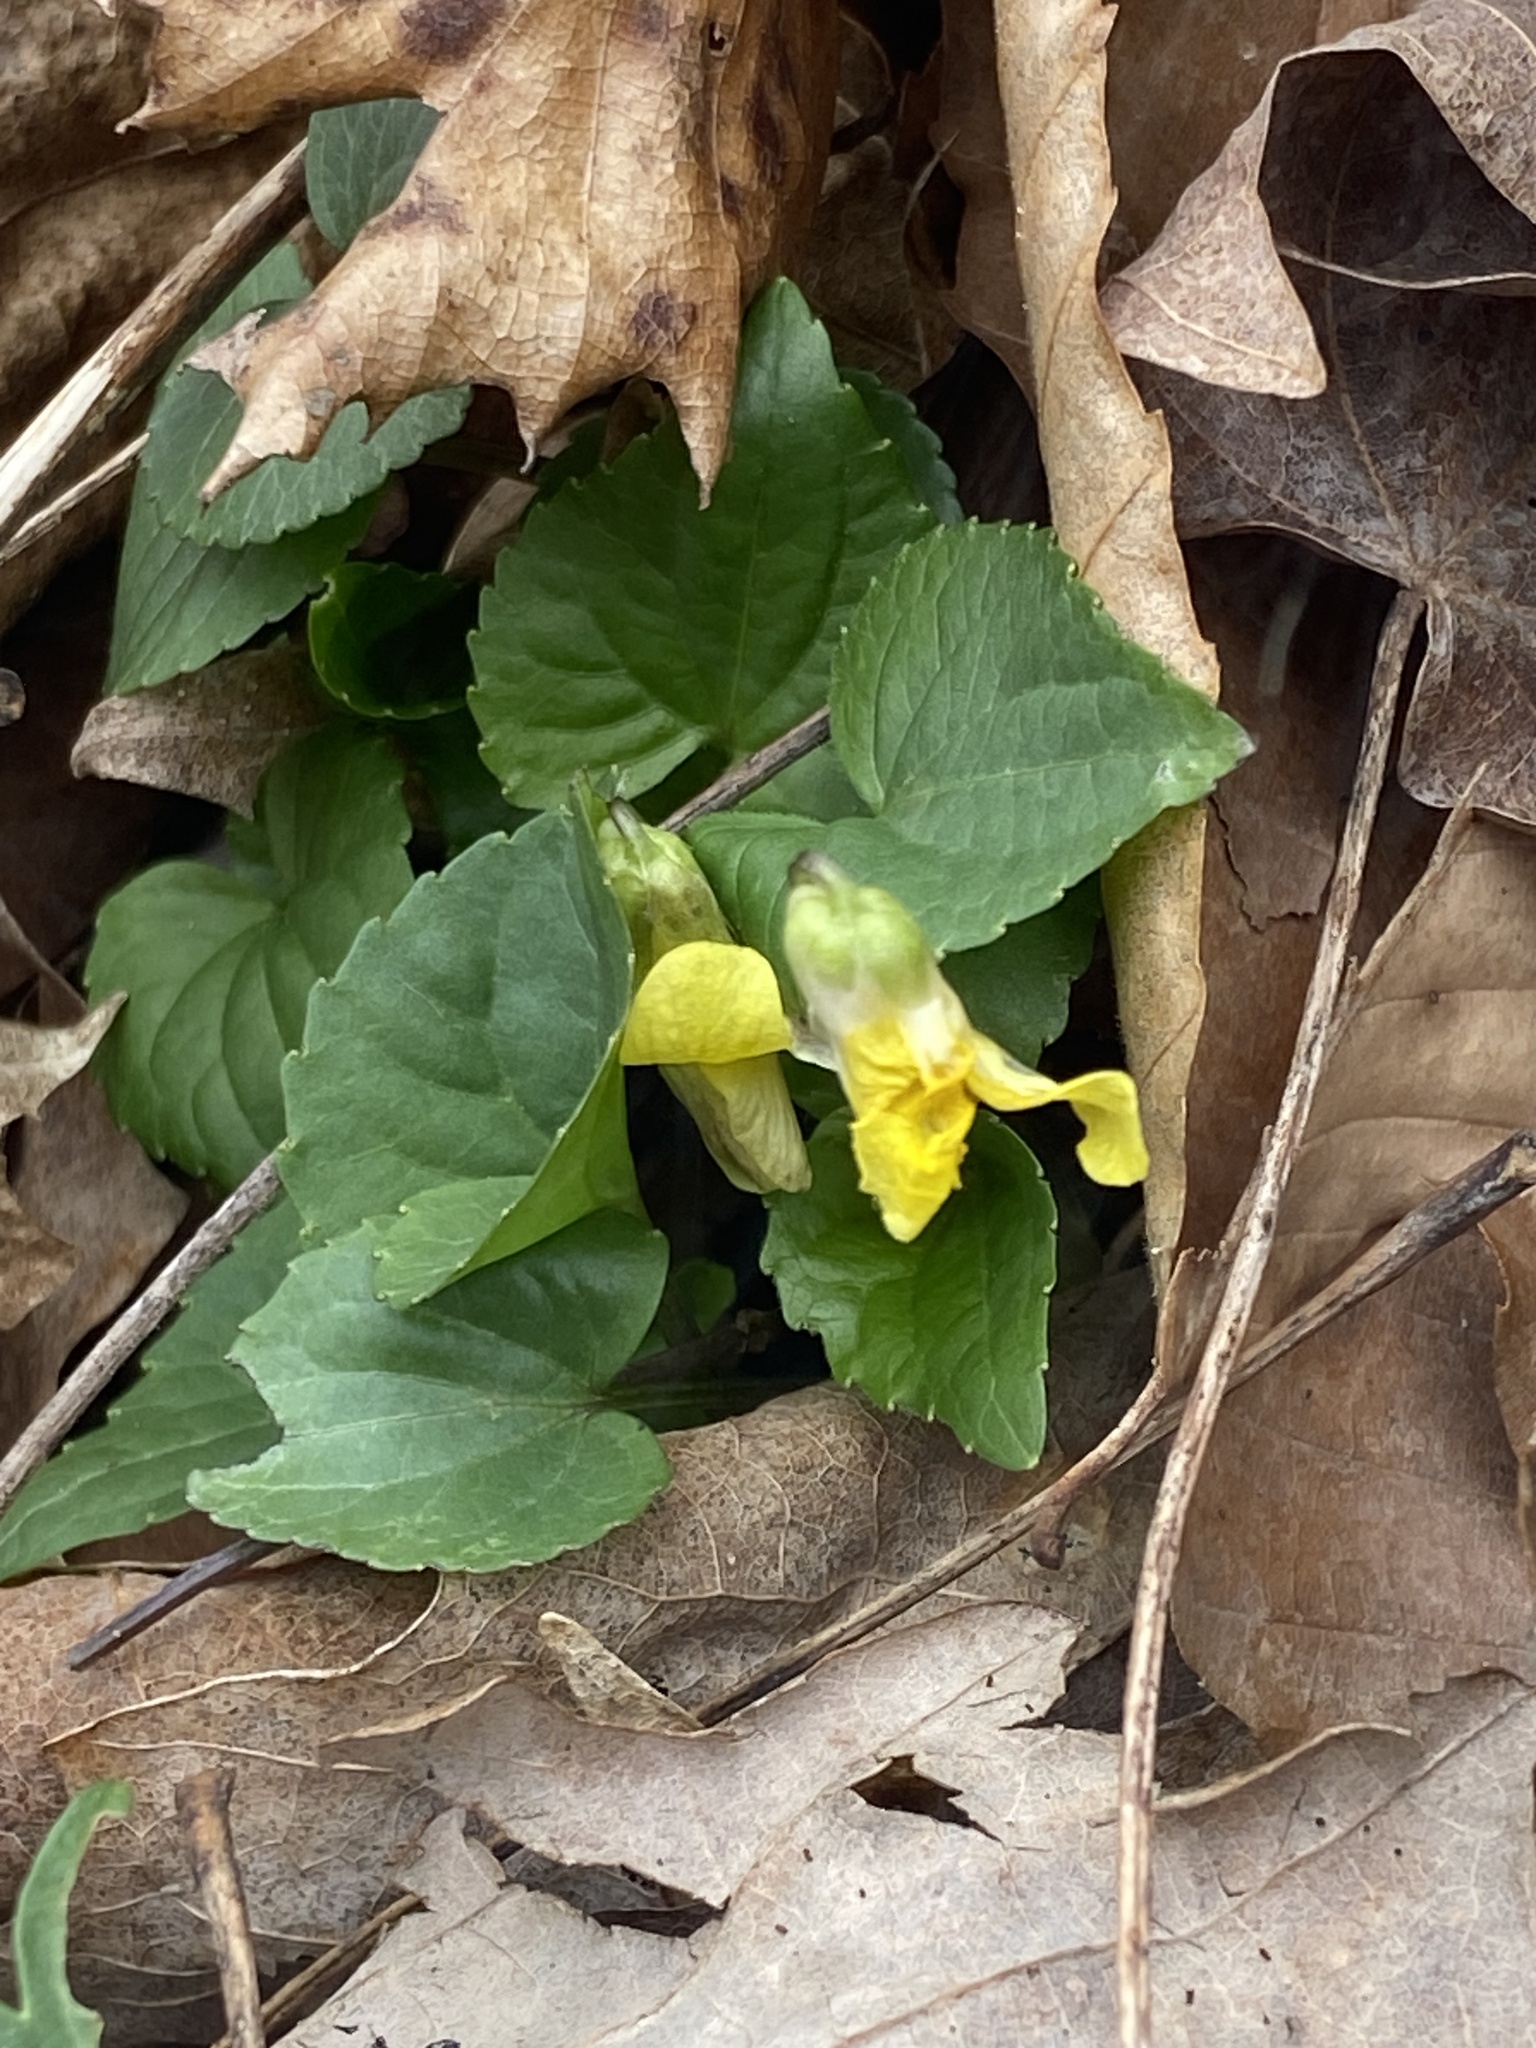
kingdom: Plantae
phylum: Tracheophyta
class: Magnoliopsida
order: Malpighiales
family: Violaceae
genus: Viola
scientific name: Viola eriocarpa
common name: Smooth yellow violet
